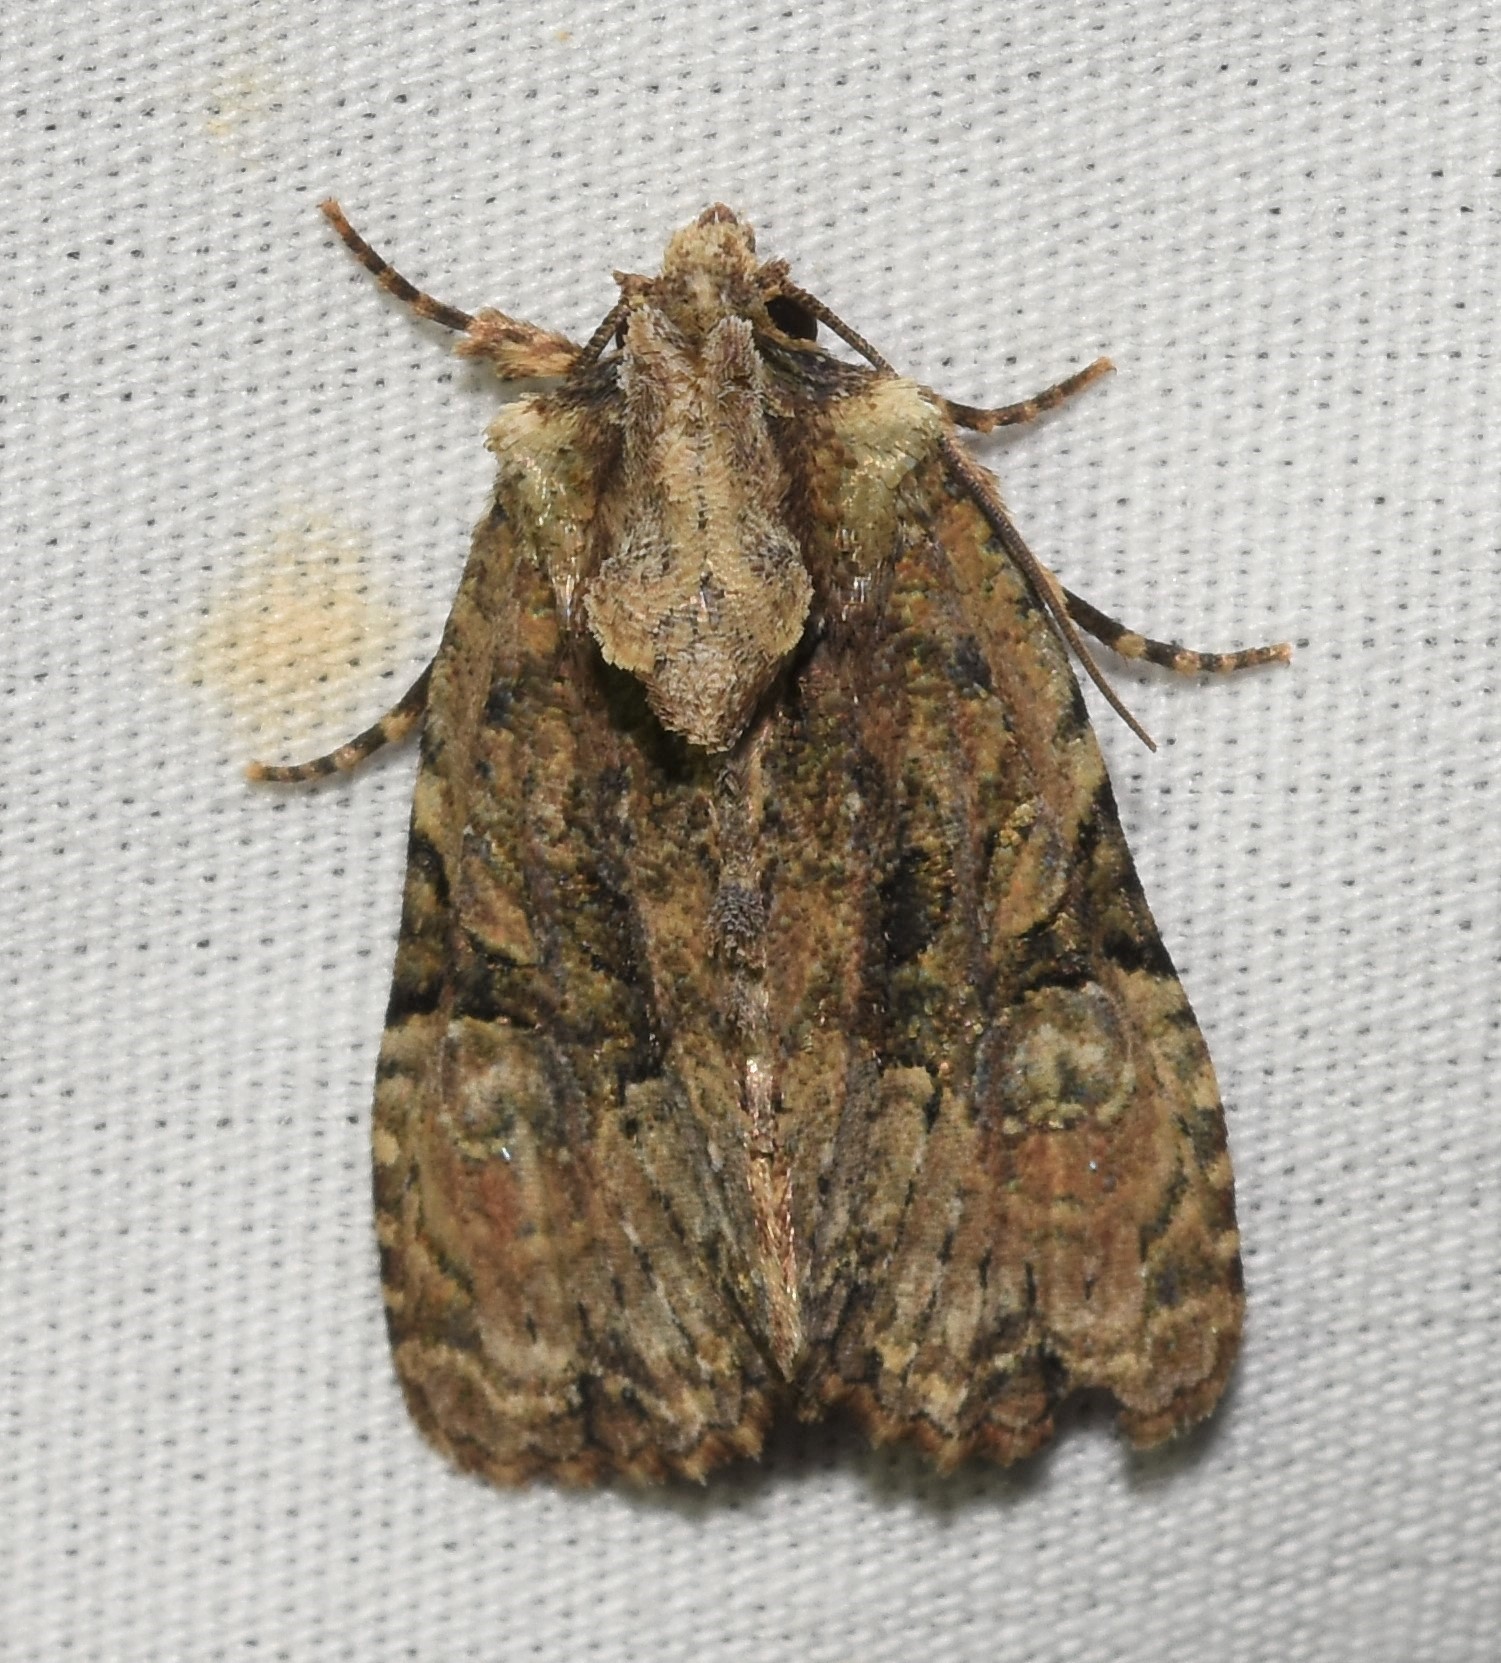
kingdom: Animalia
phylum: Arthropoda
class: Insecta
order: Lepidoptera
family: Noctuidae
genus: Oligia
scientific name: Oligia modica
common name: Black-banded brocade
